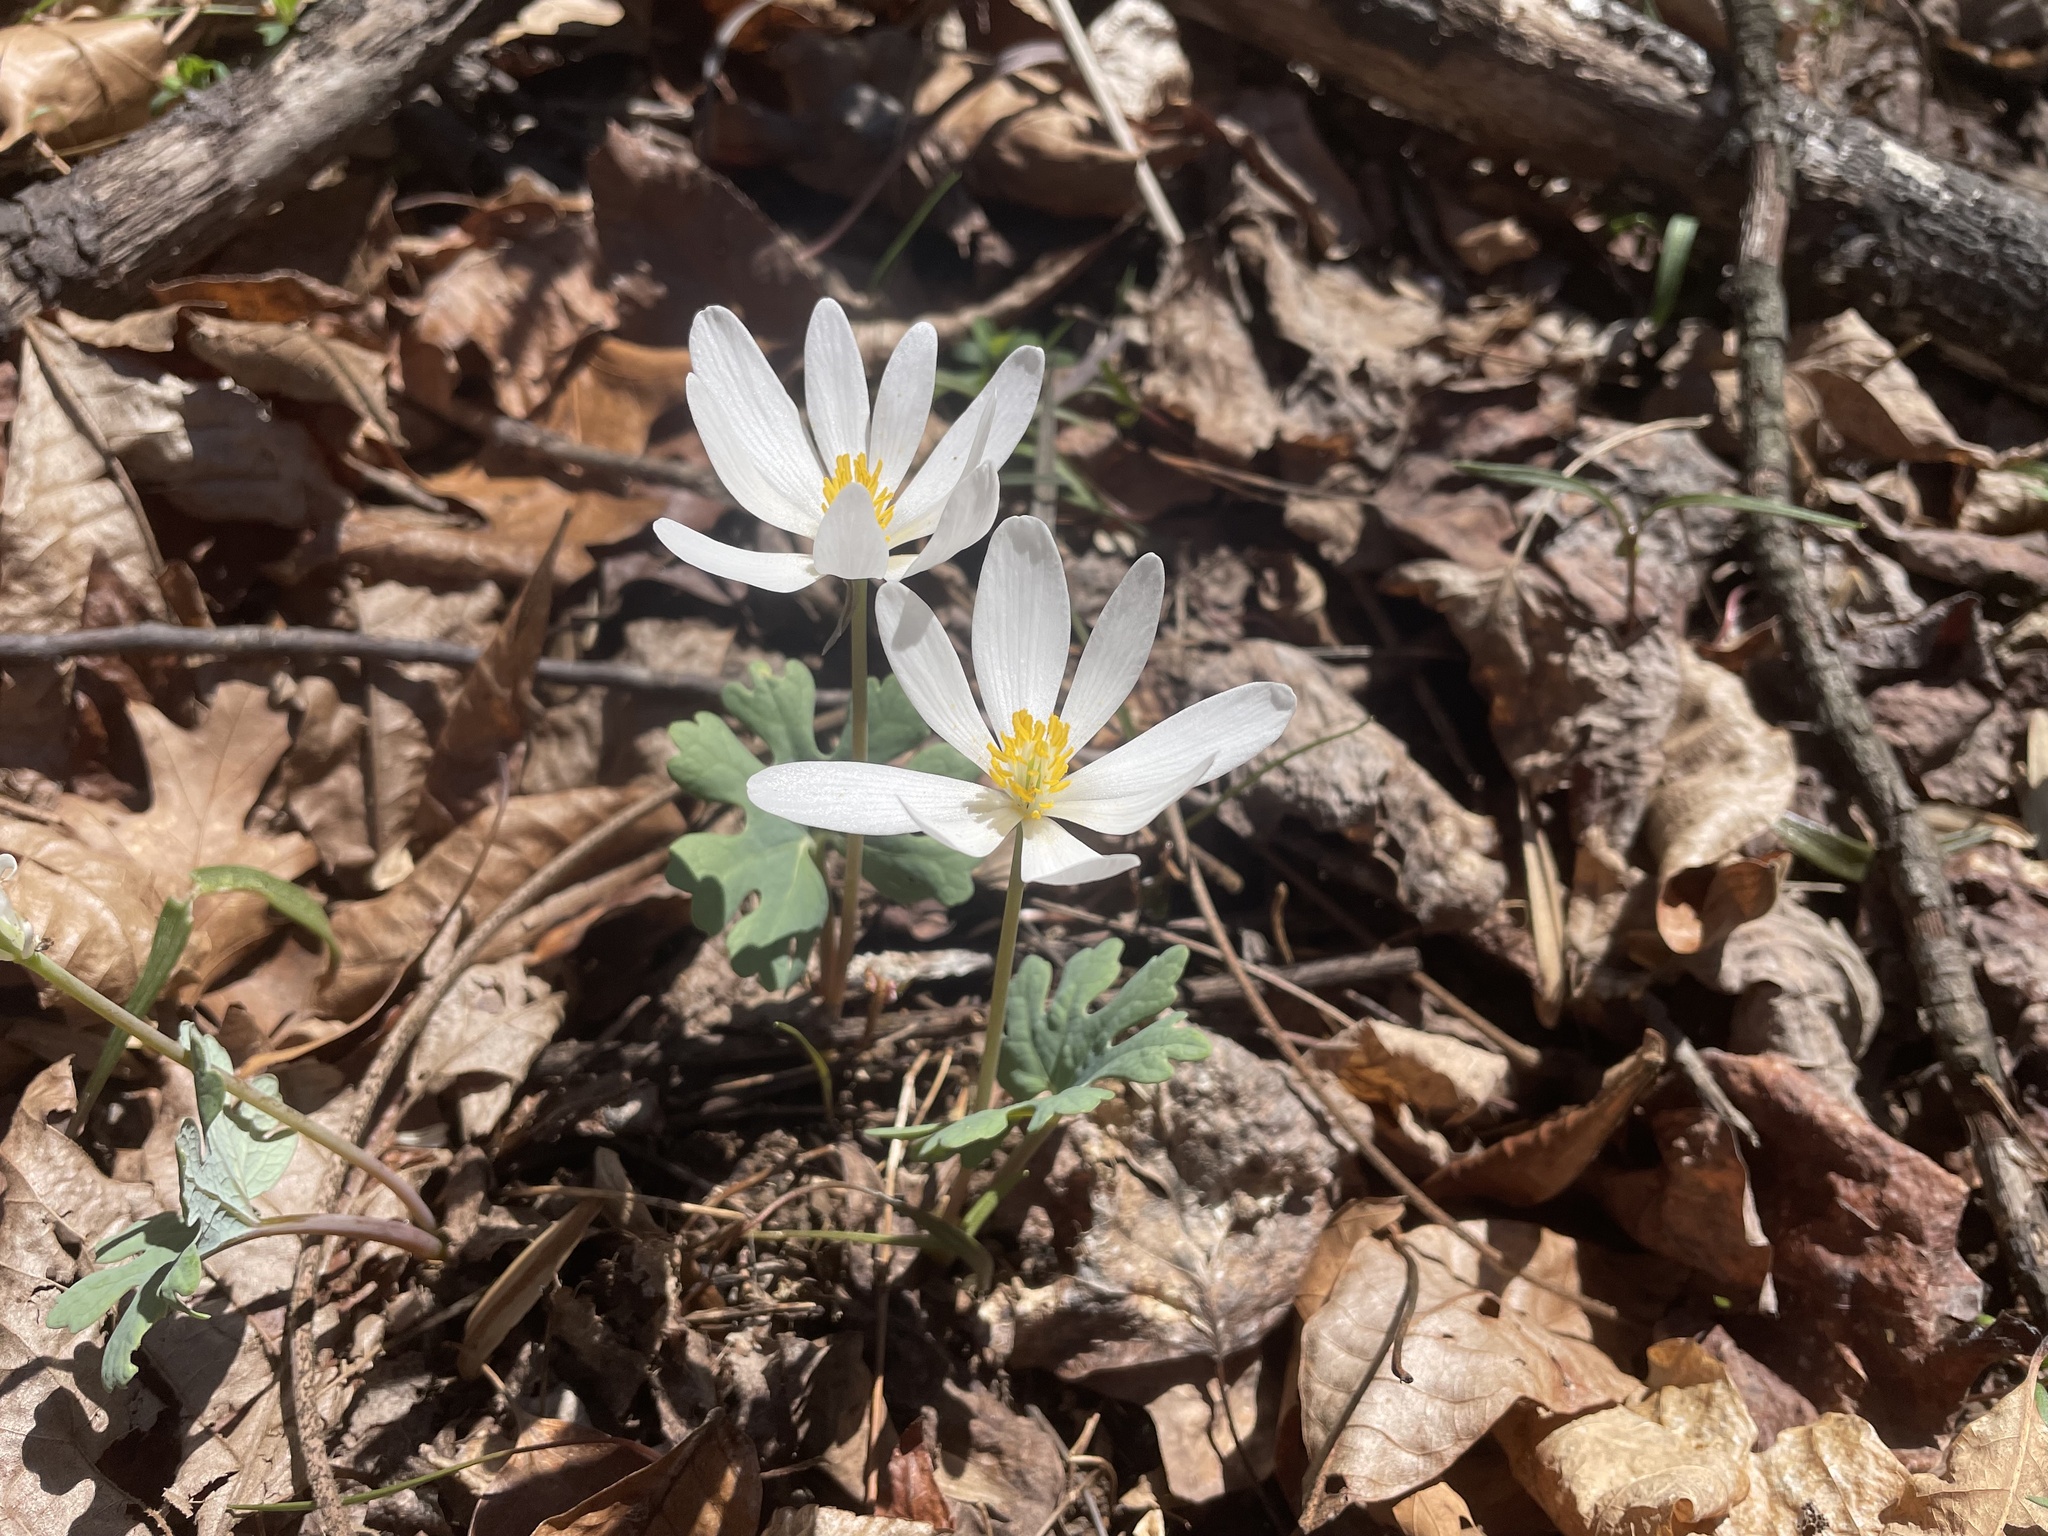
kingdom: Plantae
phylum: Tracheophyta
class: Magnoliopsida
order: Ranunculales
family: Papaveraceae
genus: Sanguinaria
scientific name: Sanguinaria canadensis
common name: Bloodroot
